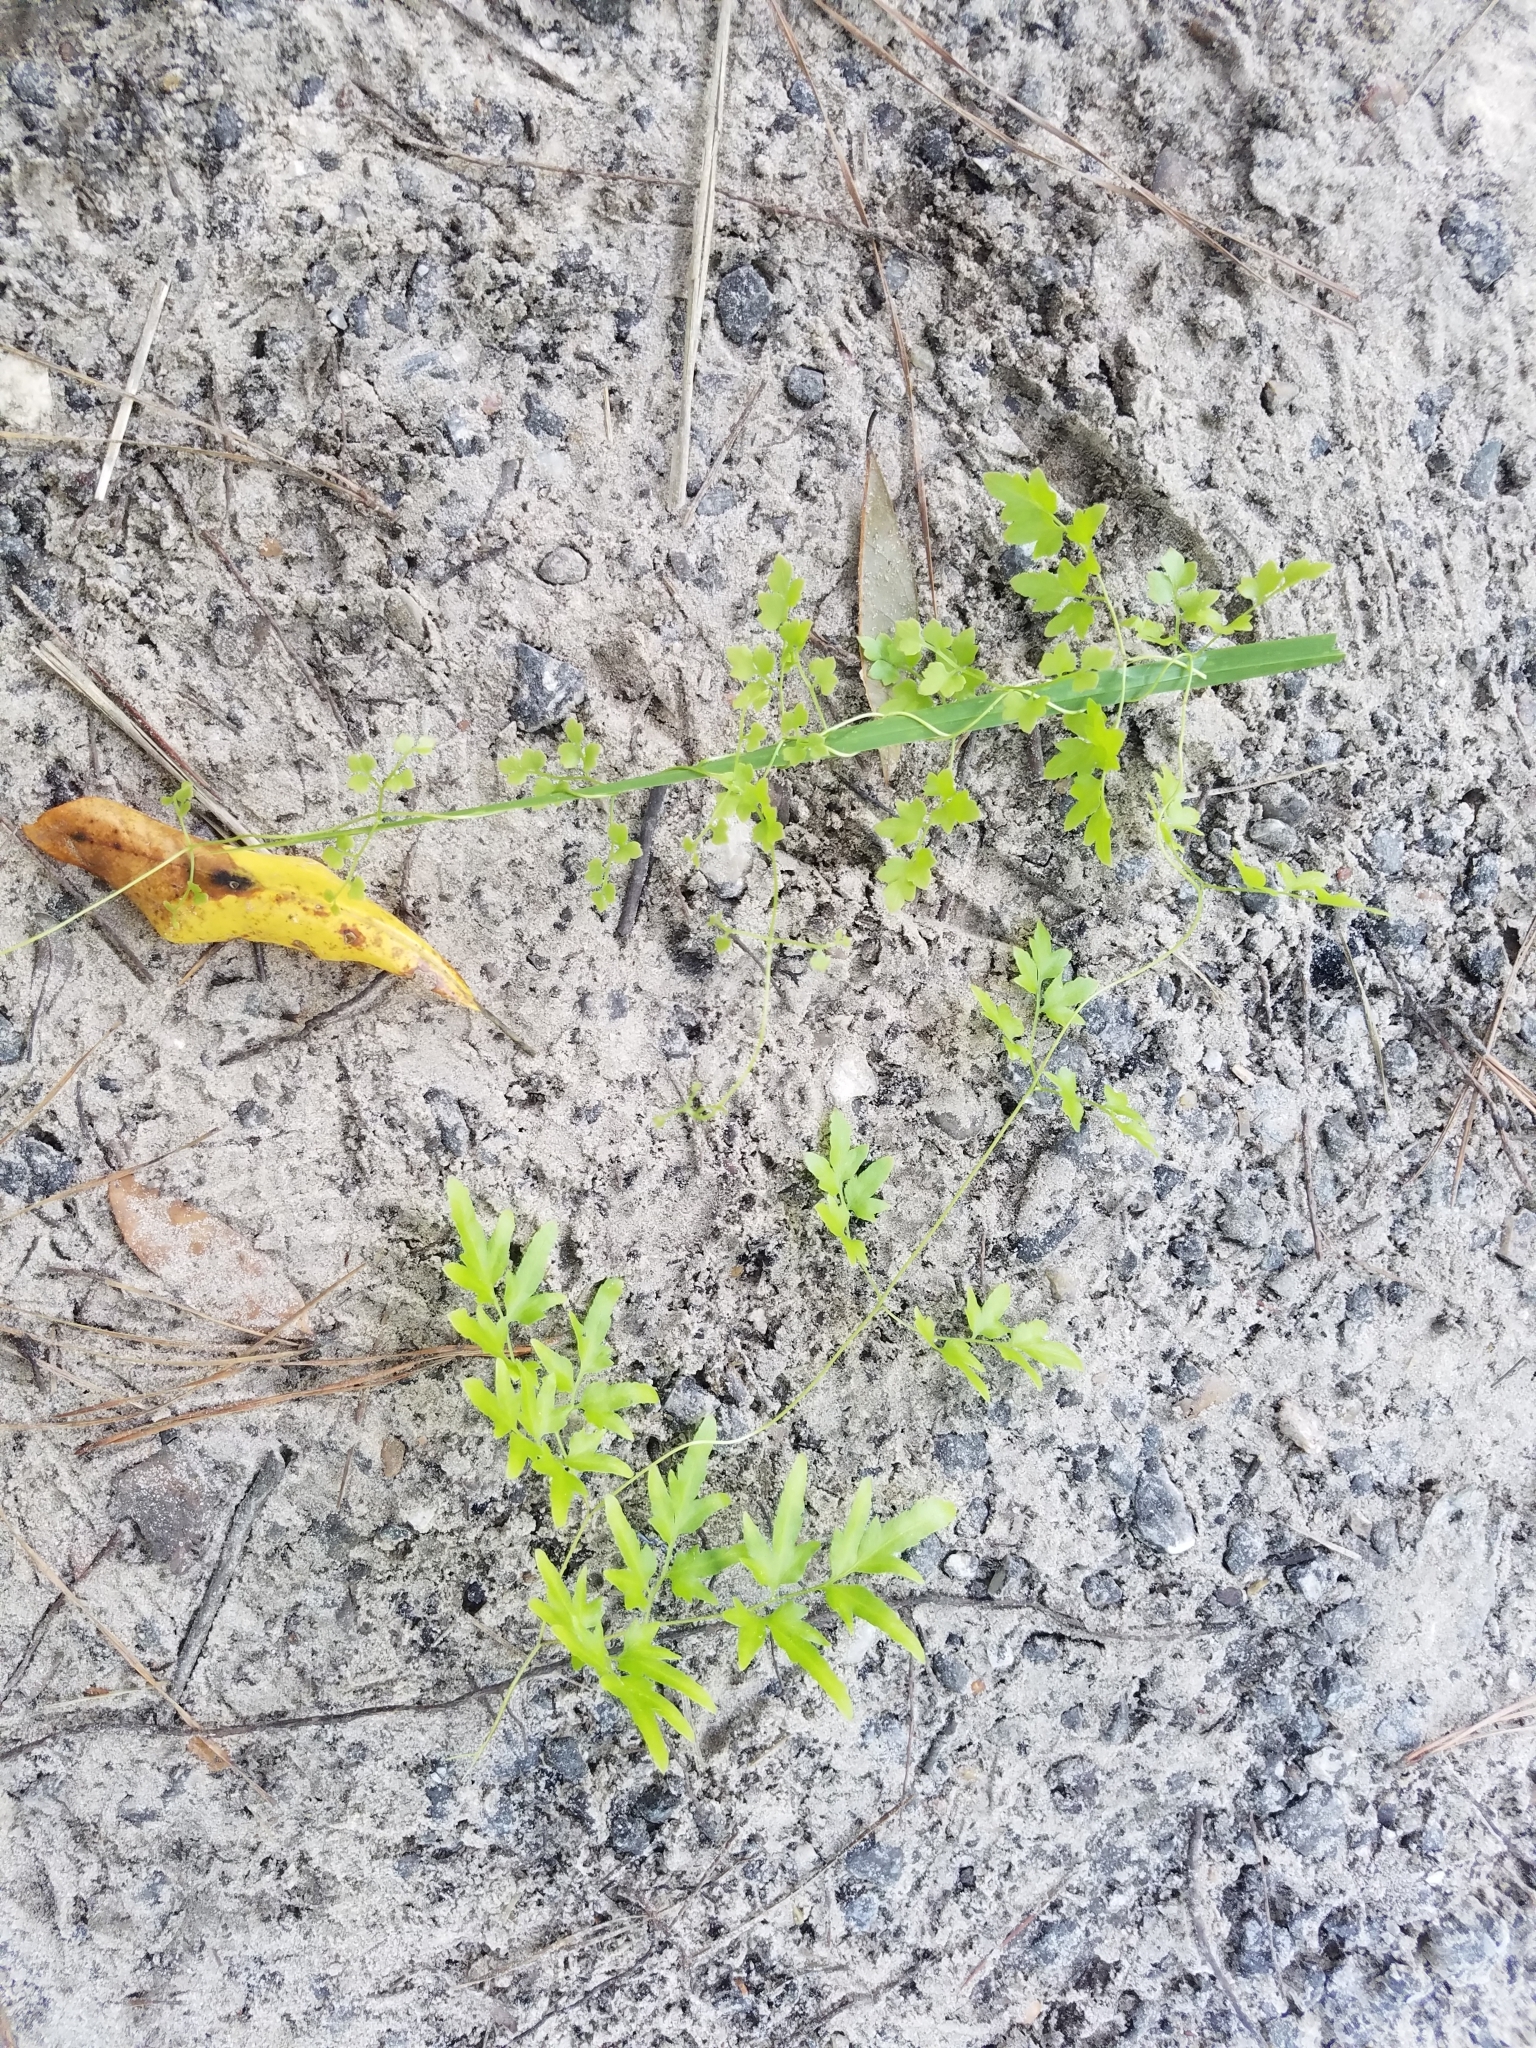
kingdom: Plantae
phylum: Tracheophyta
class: Polypodiopsida
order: Schizaeales
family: Lygodiaceae
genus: Lygodium
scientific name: Lygodium japonicum
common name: Japanese climbing fern
